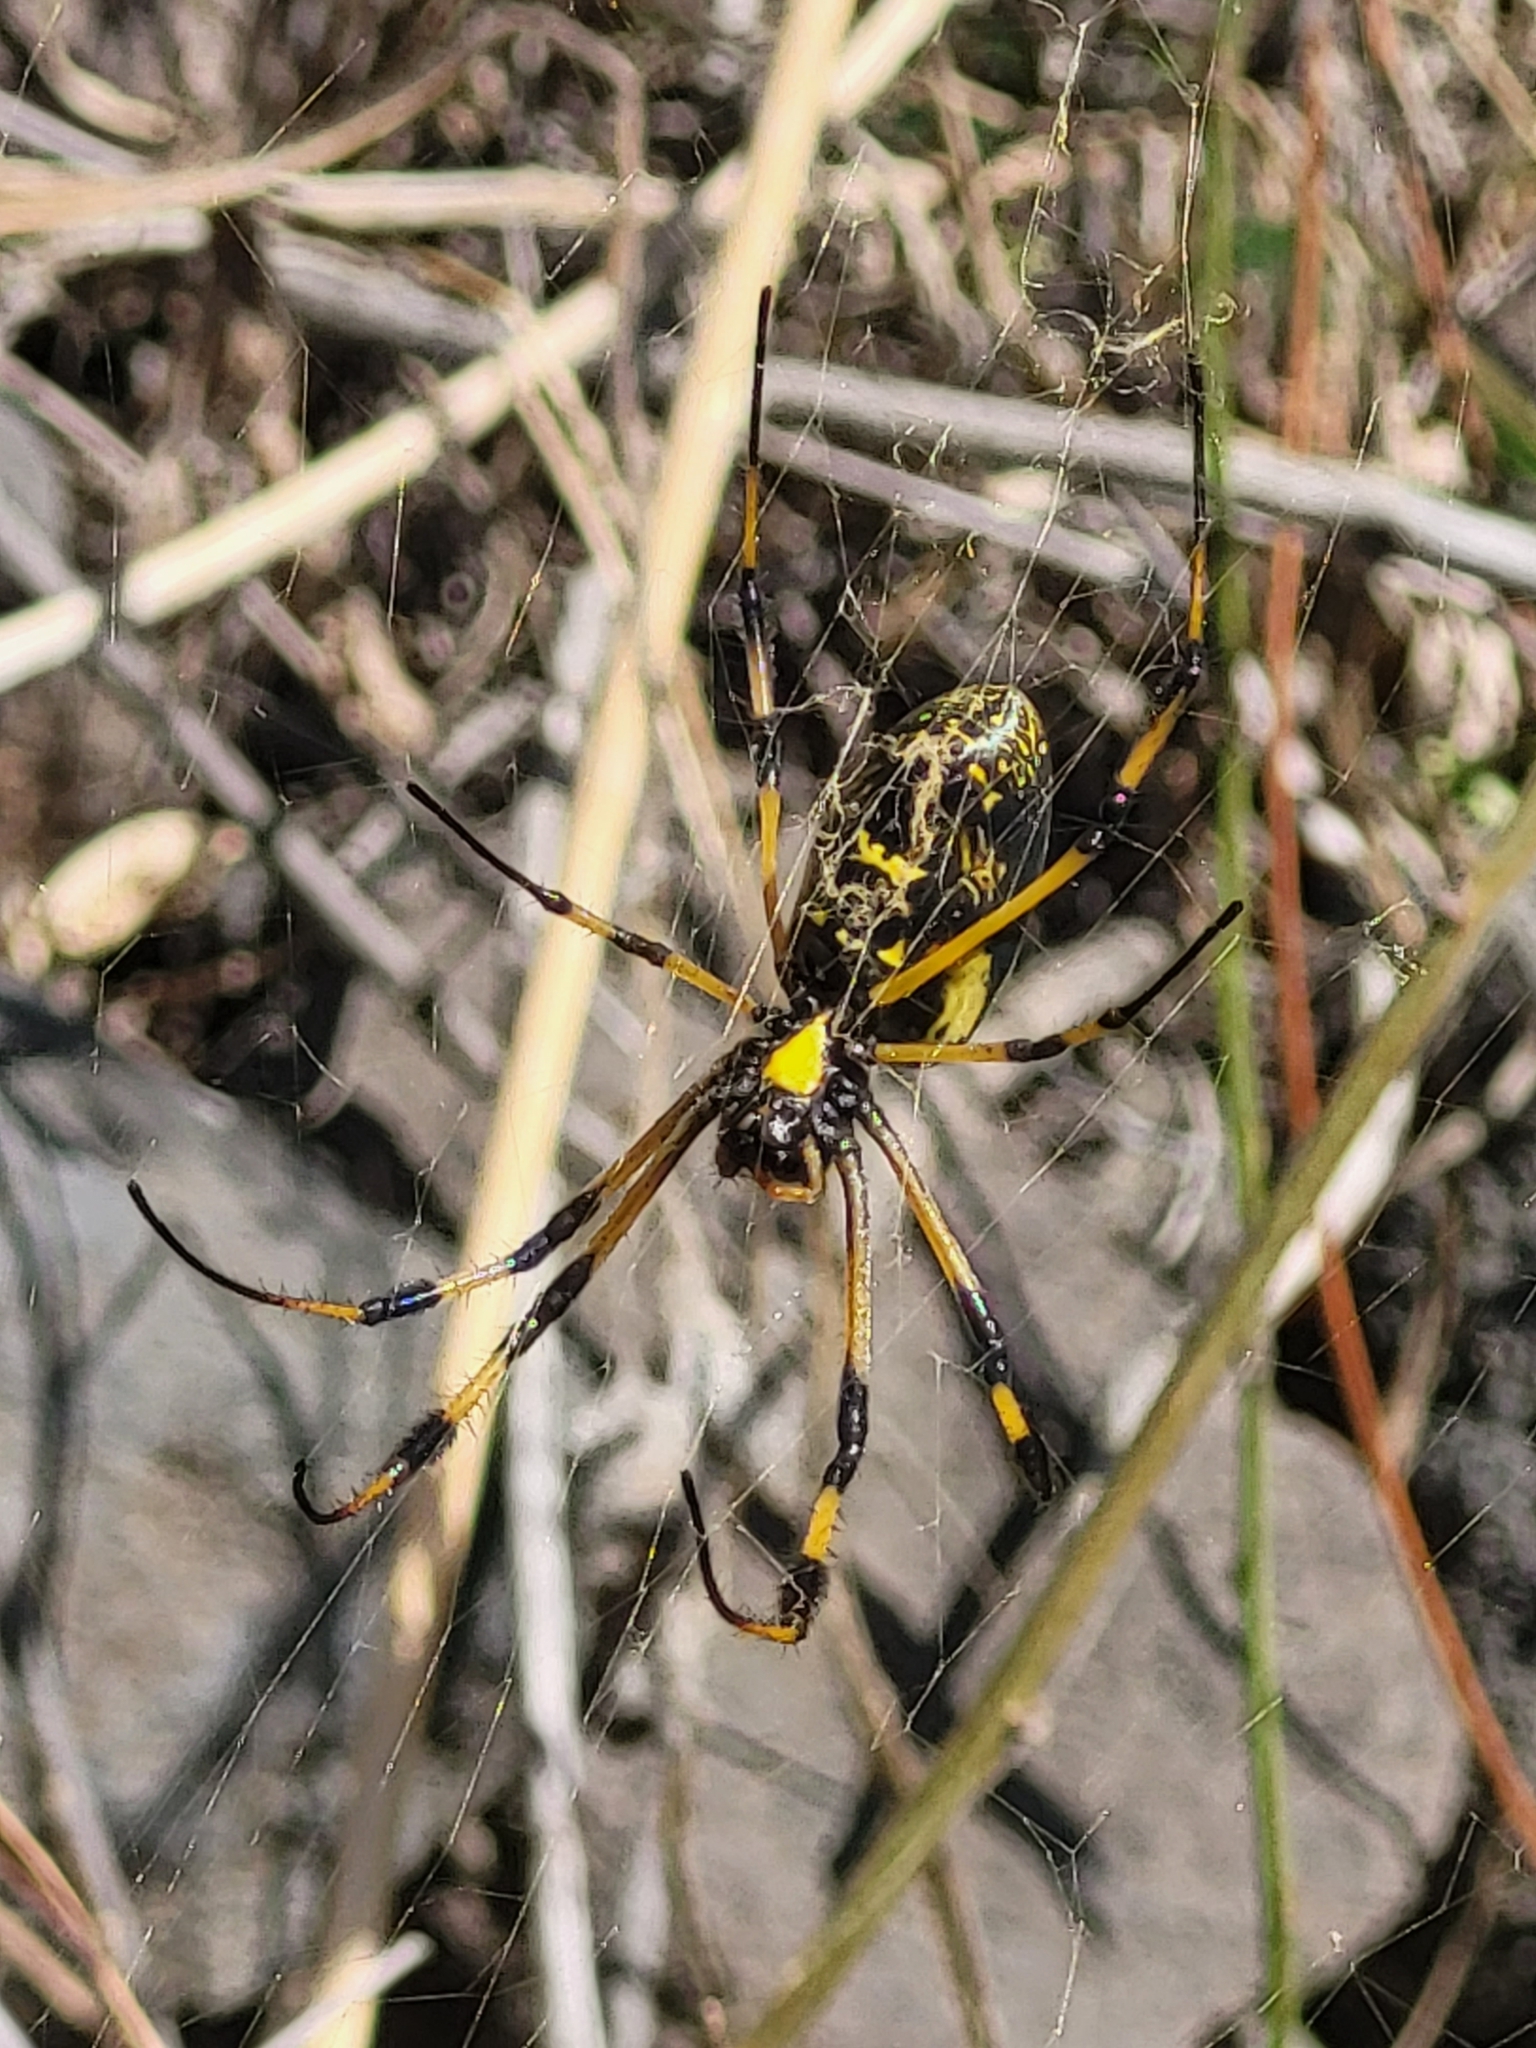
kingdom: Animalia
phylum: Arthropoda
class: Arachnida
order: Araneae
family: Araneidae
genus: Trichonephila
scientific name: Trichonephila senegalensis
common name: Banded golden orb weaver
